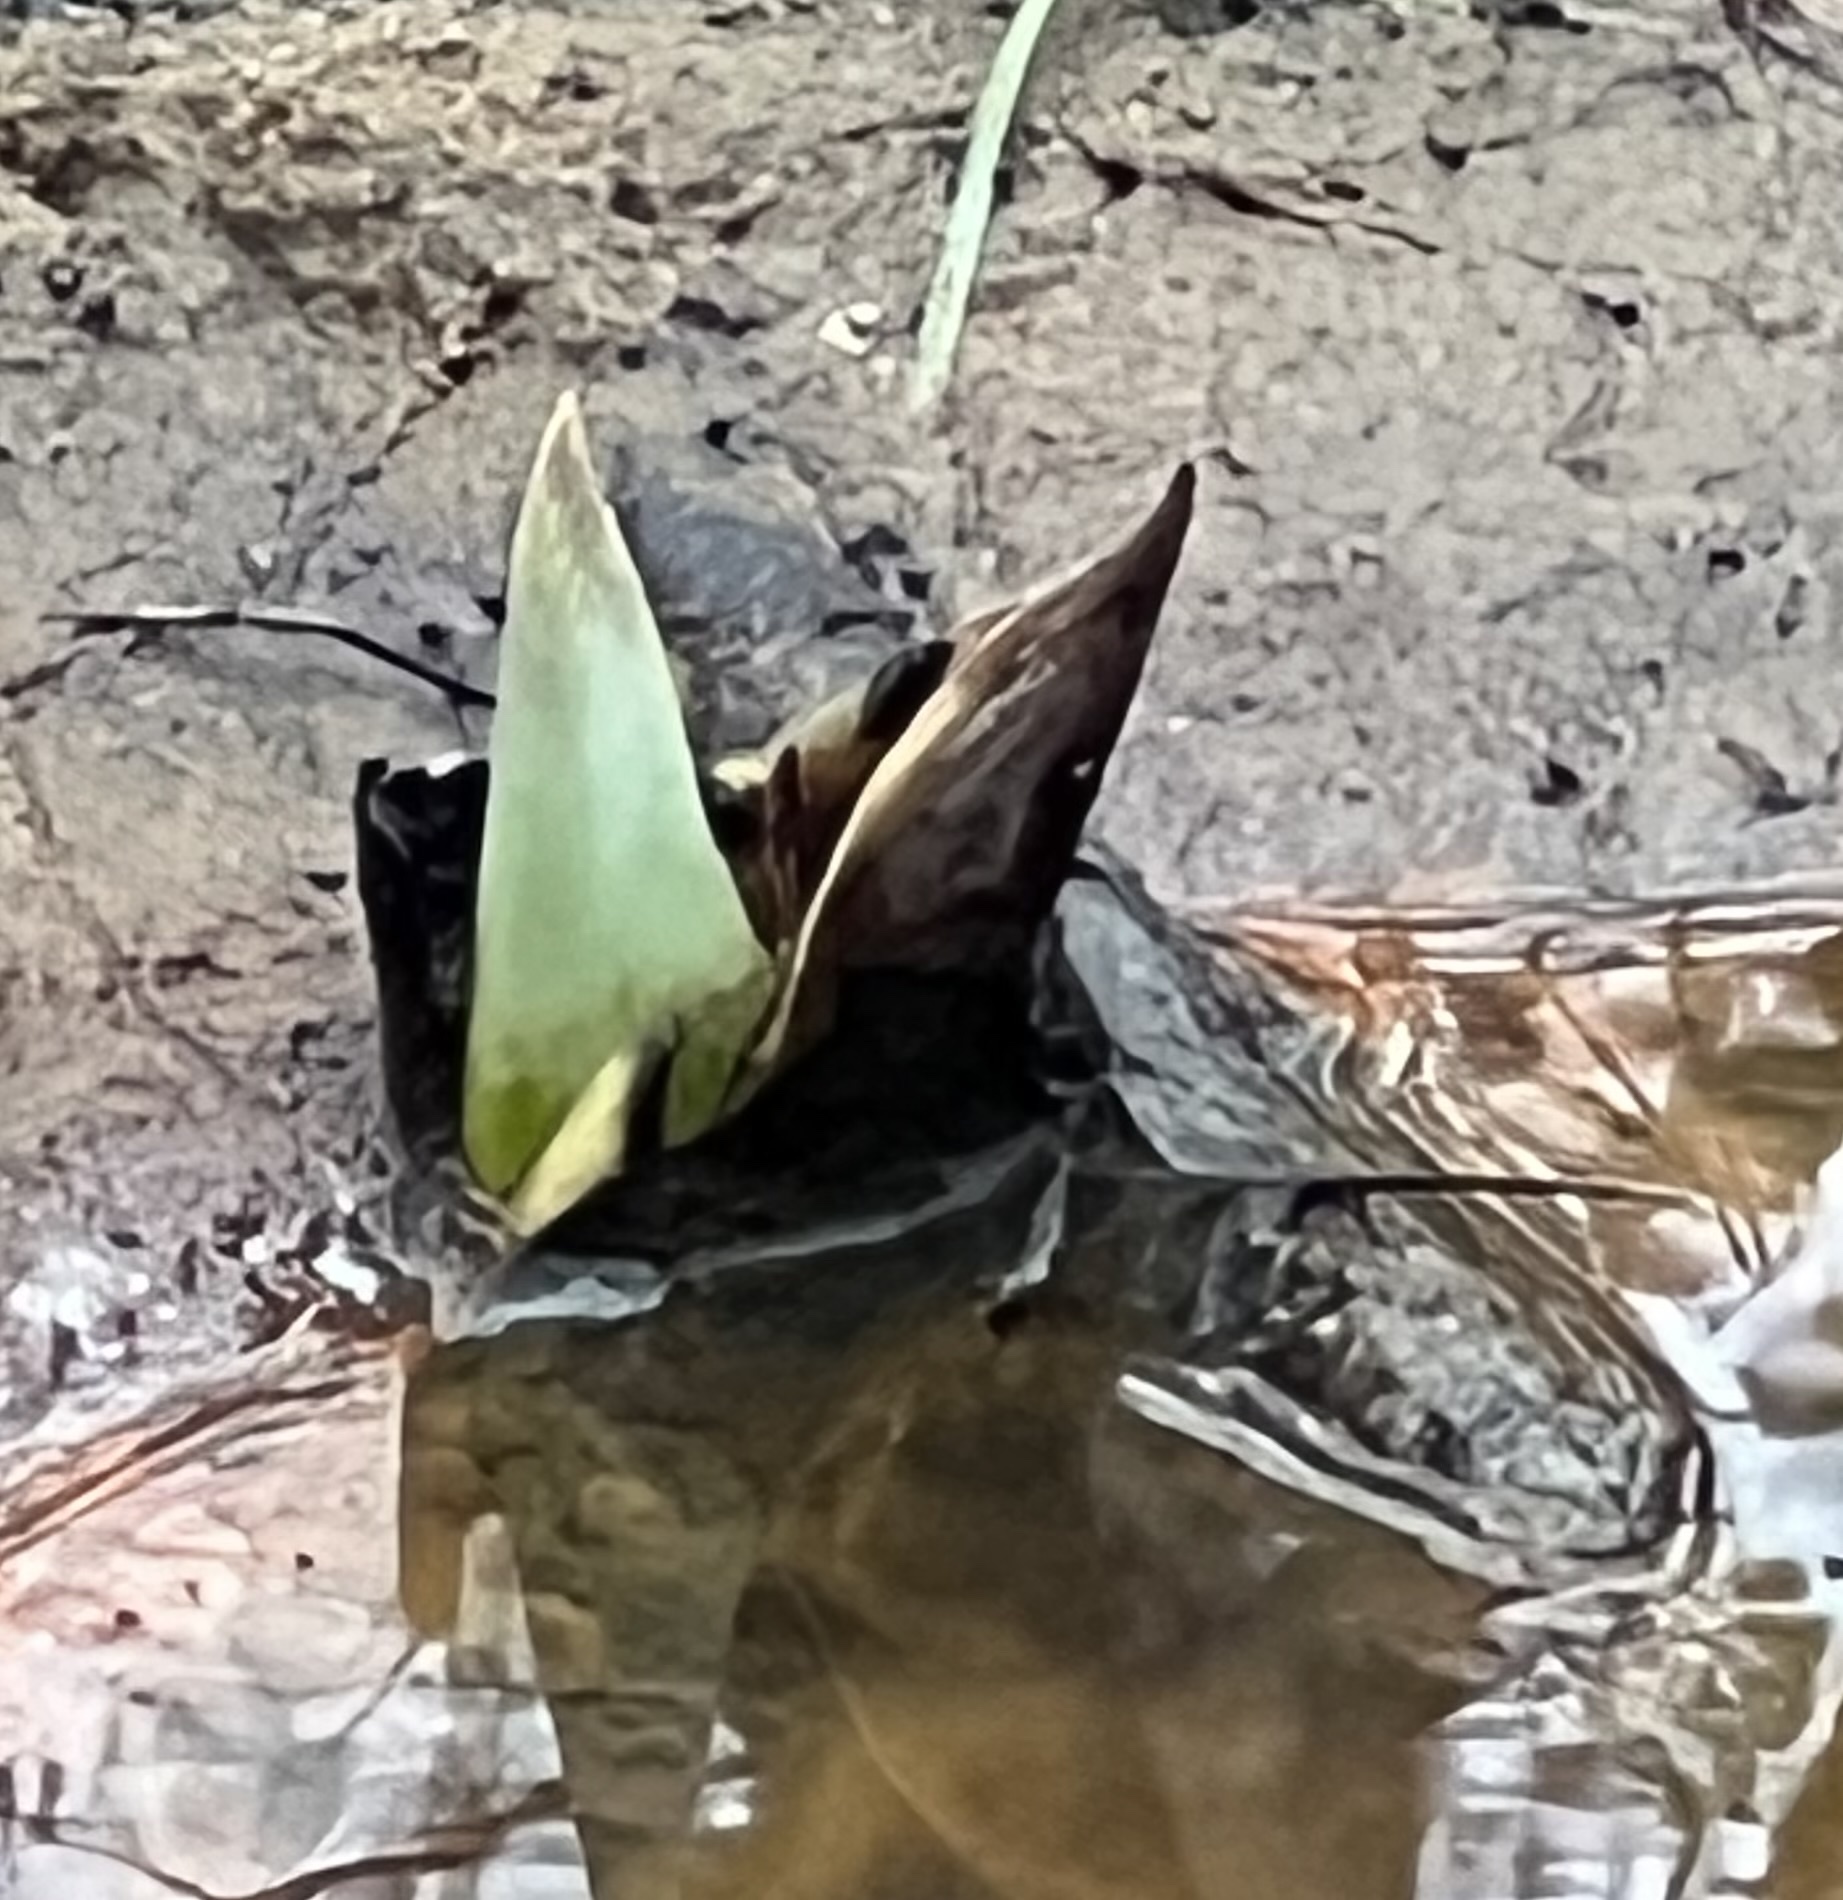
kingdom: Plantae
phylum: Tracheophyta
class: Liliopsida
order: Alismatales
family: Araceae
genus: Symplocarpus
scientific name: Symplocarpus foetidus
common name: Eastern skunk cabbage
